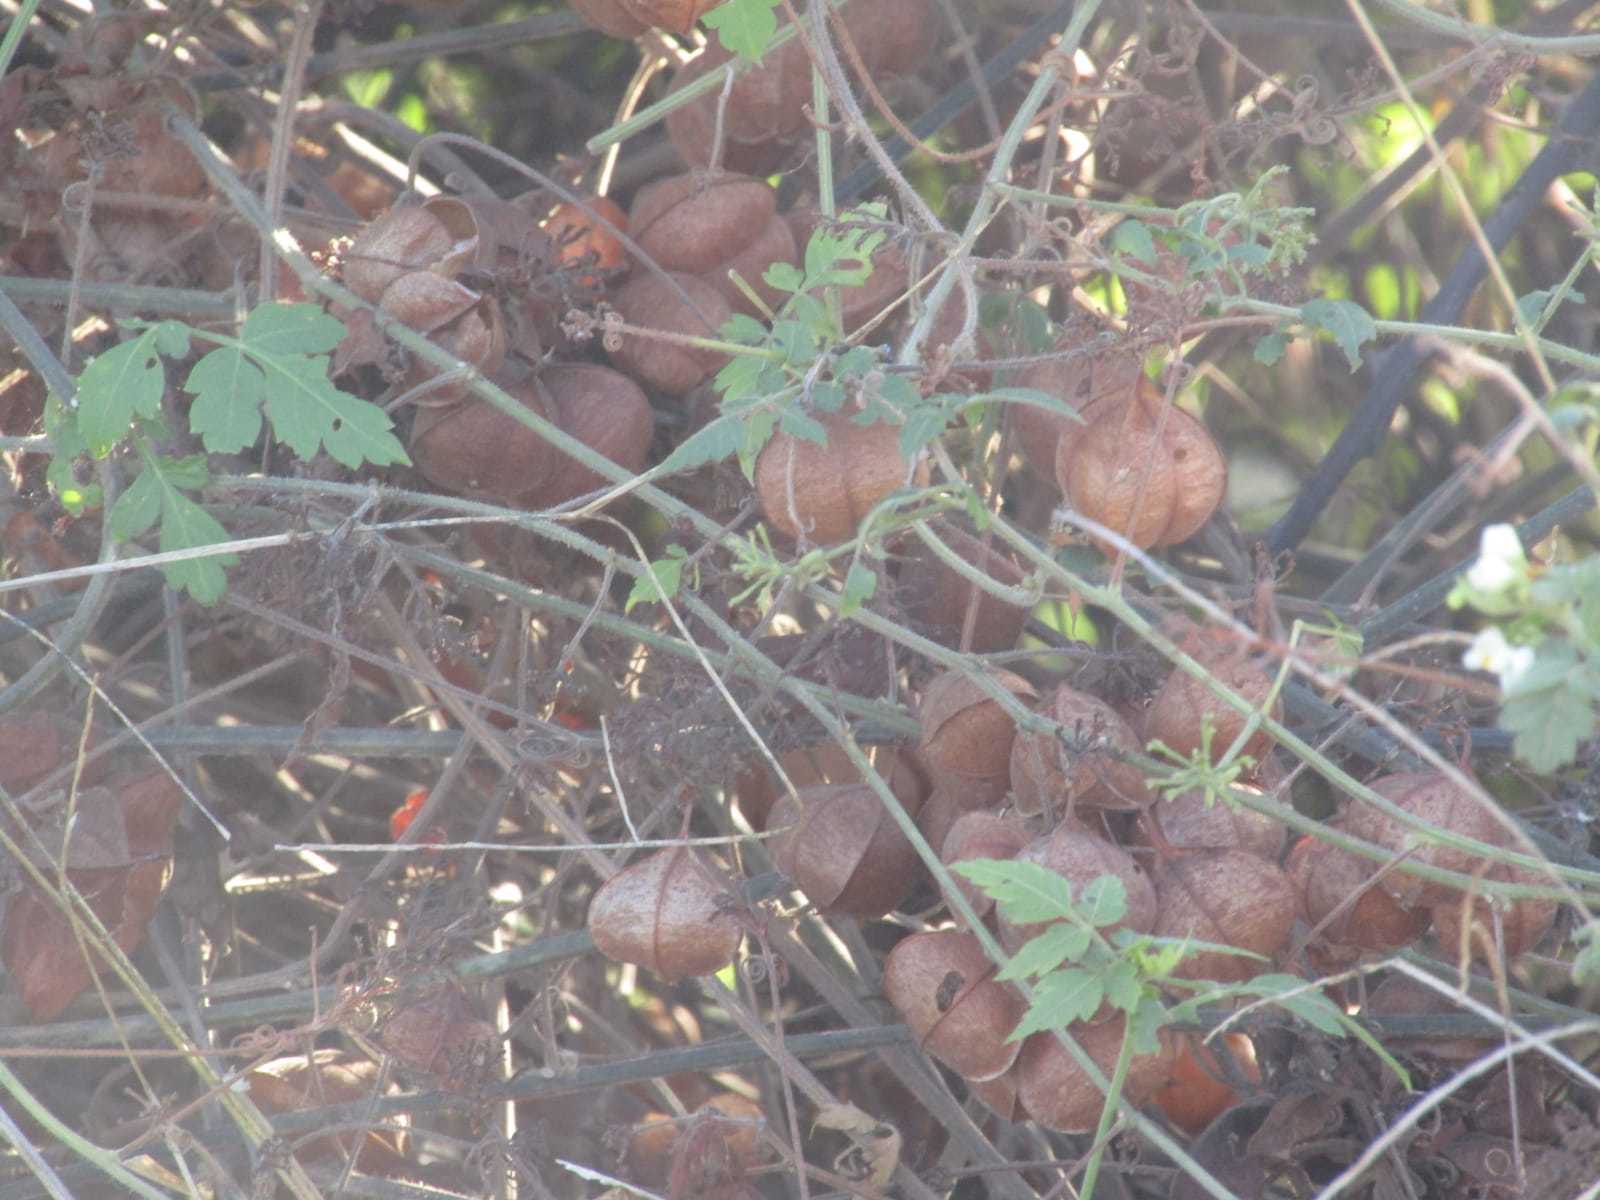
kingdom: Plantae
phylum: Tracheophyta
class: Magnoliopsida
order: Sapindales
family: Sapindaceae
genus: Cardiospermum
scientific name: Cardiospermum corindum
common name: Faux persil
